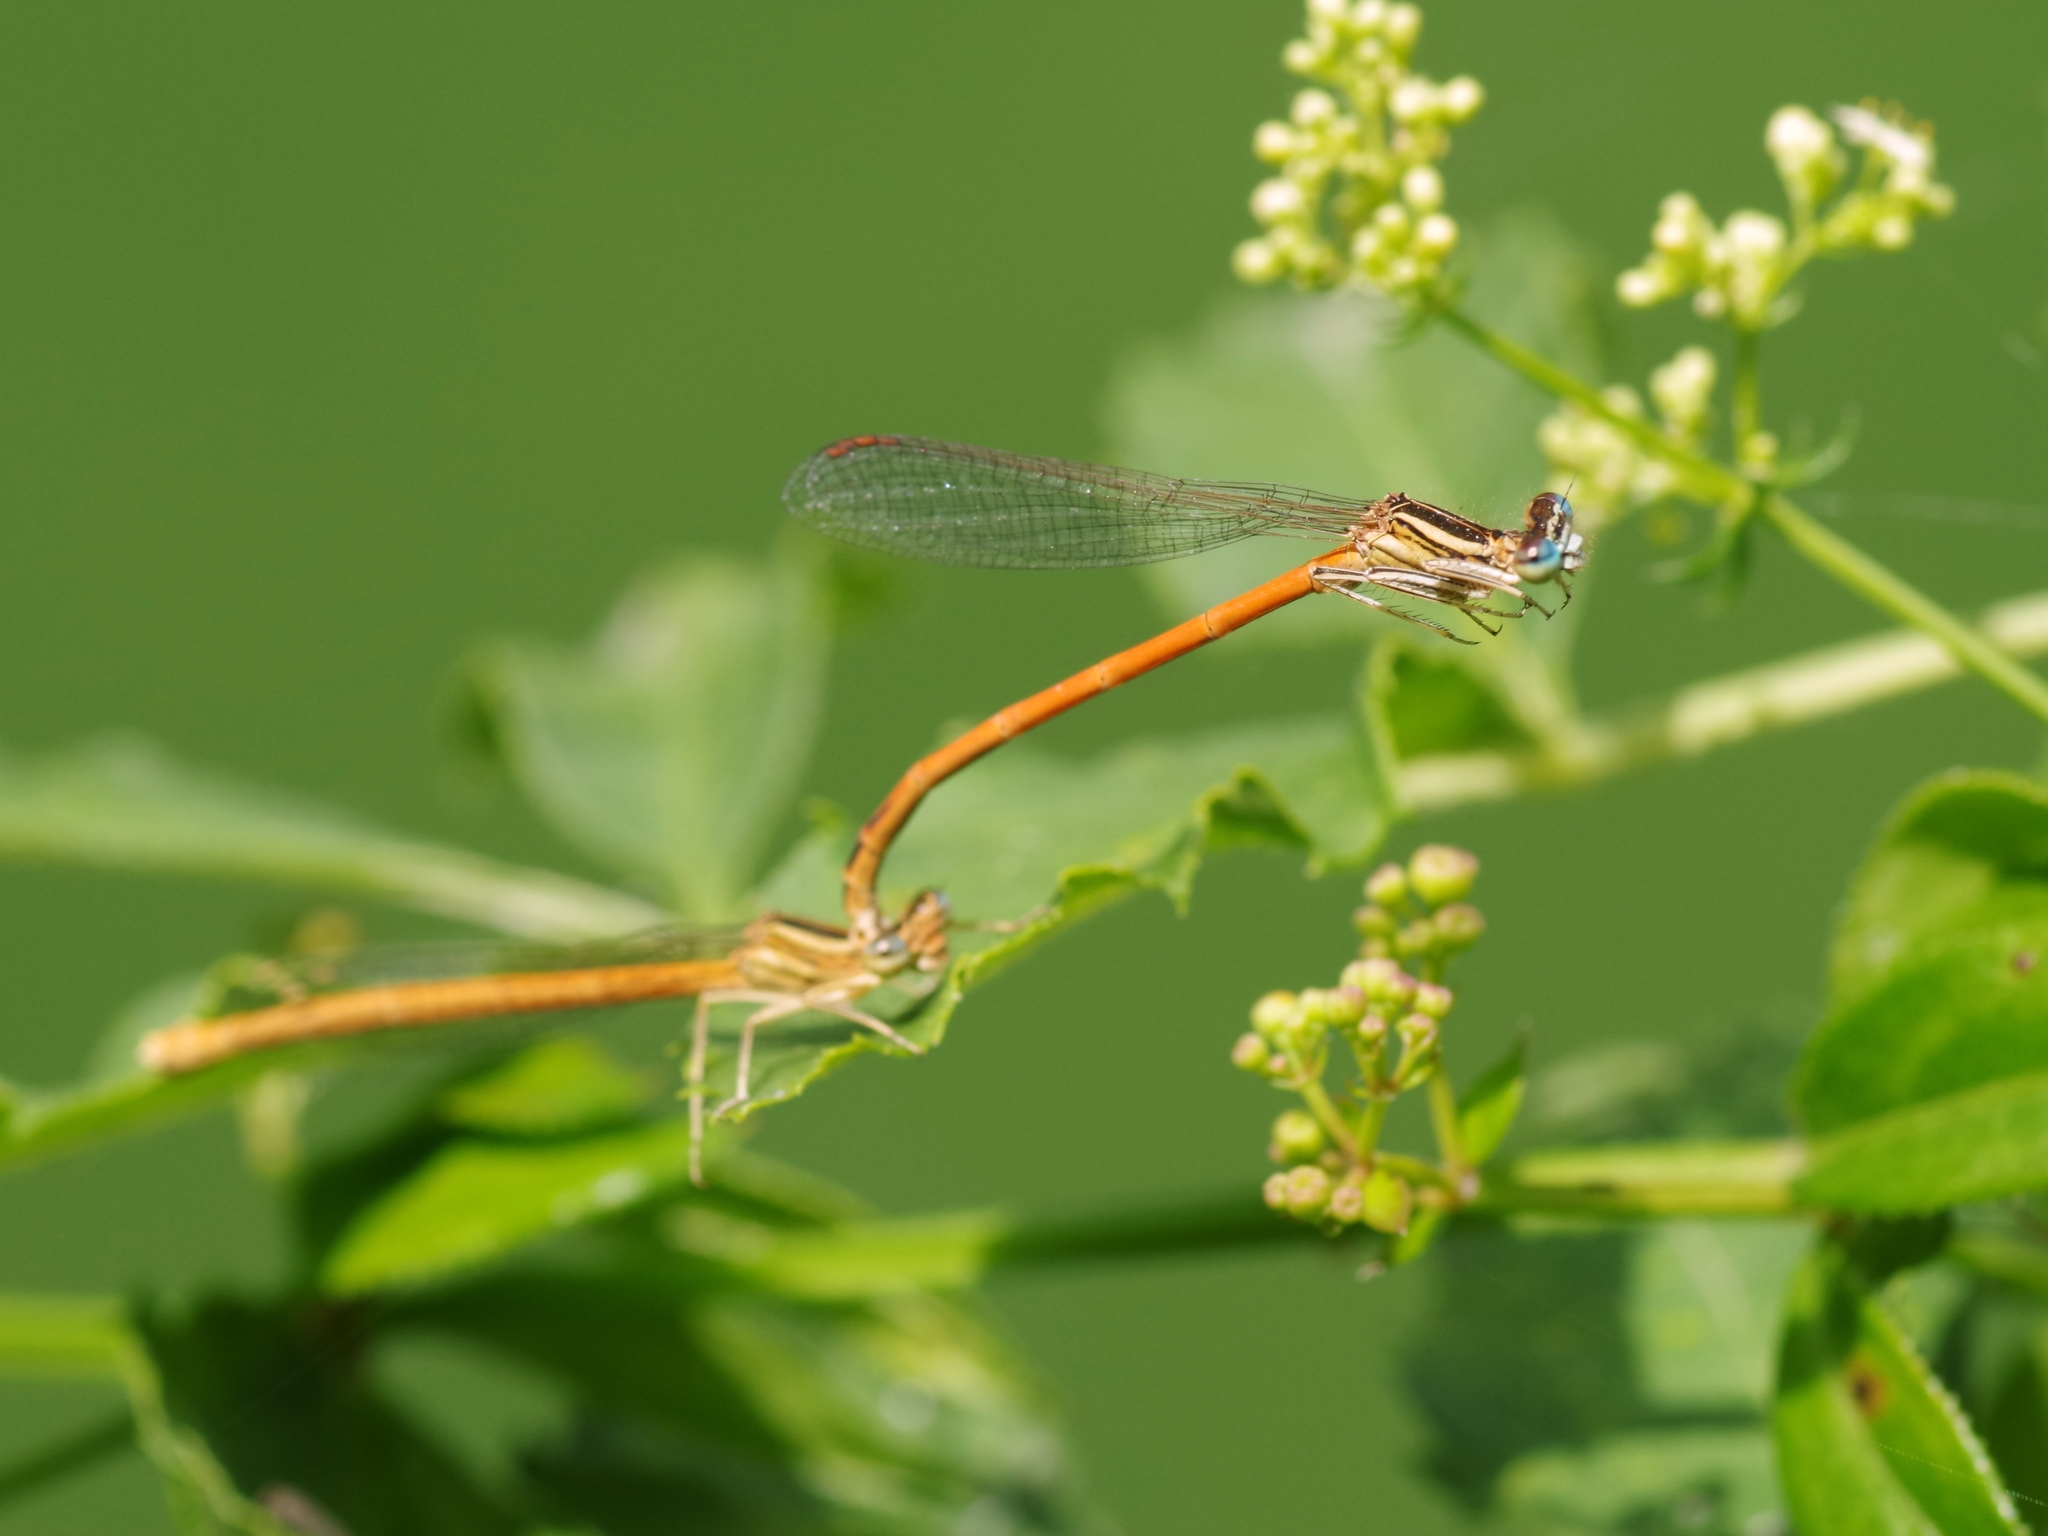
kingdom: Animalia
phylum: Arthropoda
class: Insecta
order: Odonata
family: Platycnemididae
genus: Platycnemis
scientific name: Platycnemis acutipennis
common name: Orange featherleg
